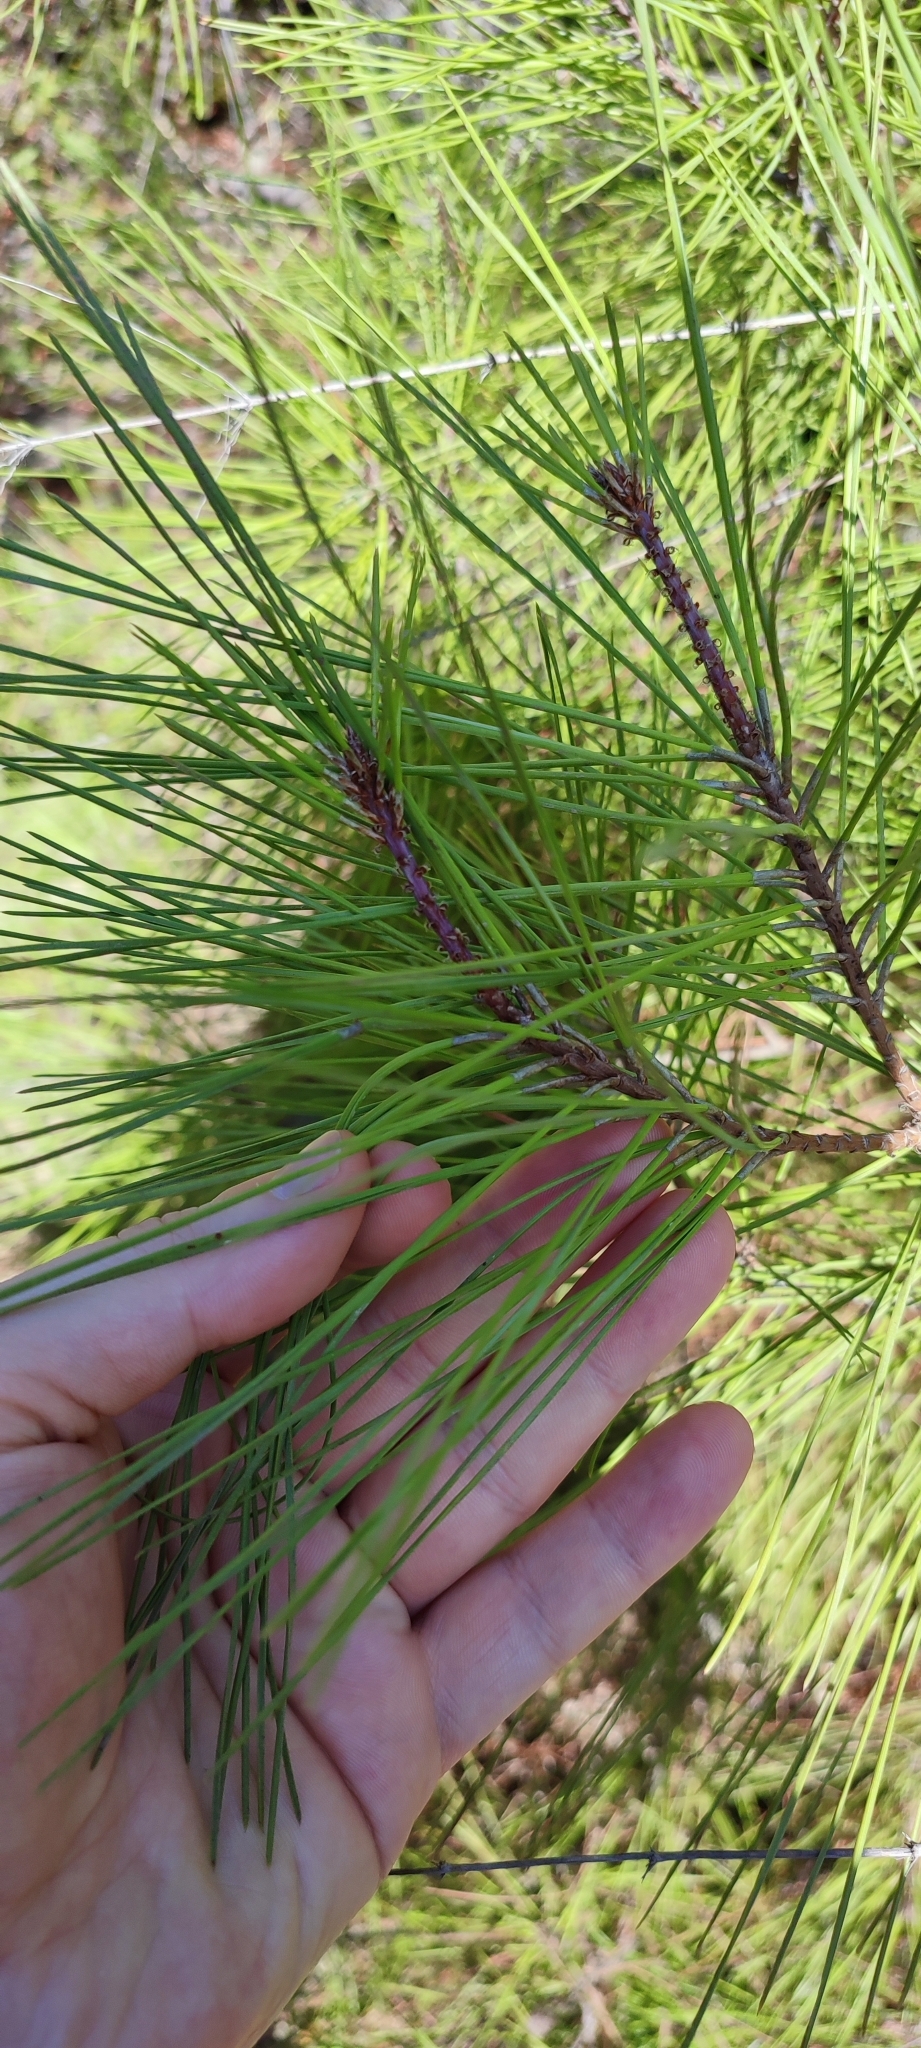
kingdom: Plantae
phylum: Tracheophyta
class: Pinopsida
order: Pinales
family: Pinaceae
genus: Pinus
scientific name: Pinus brutia
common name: Turkish pine
